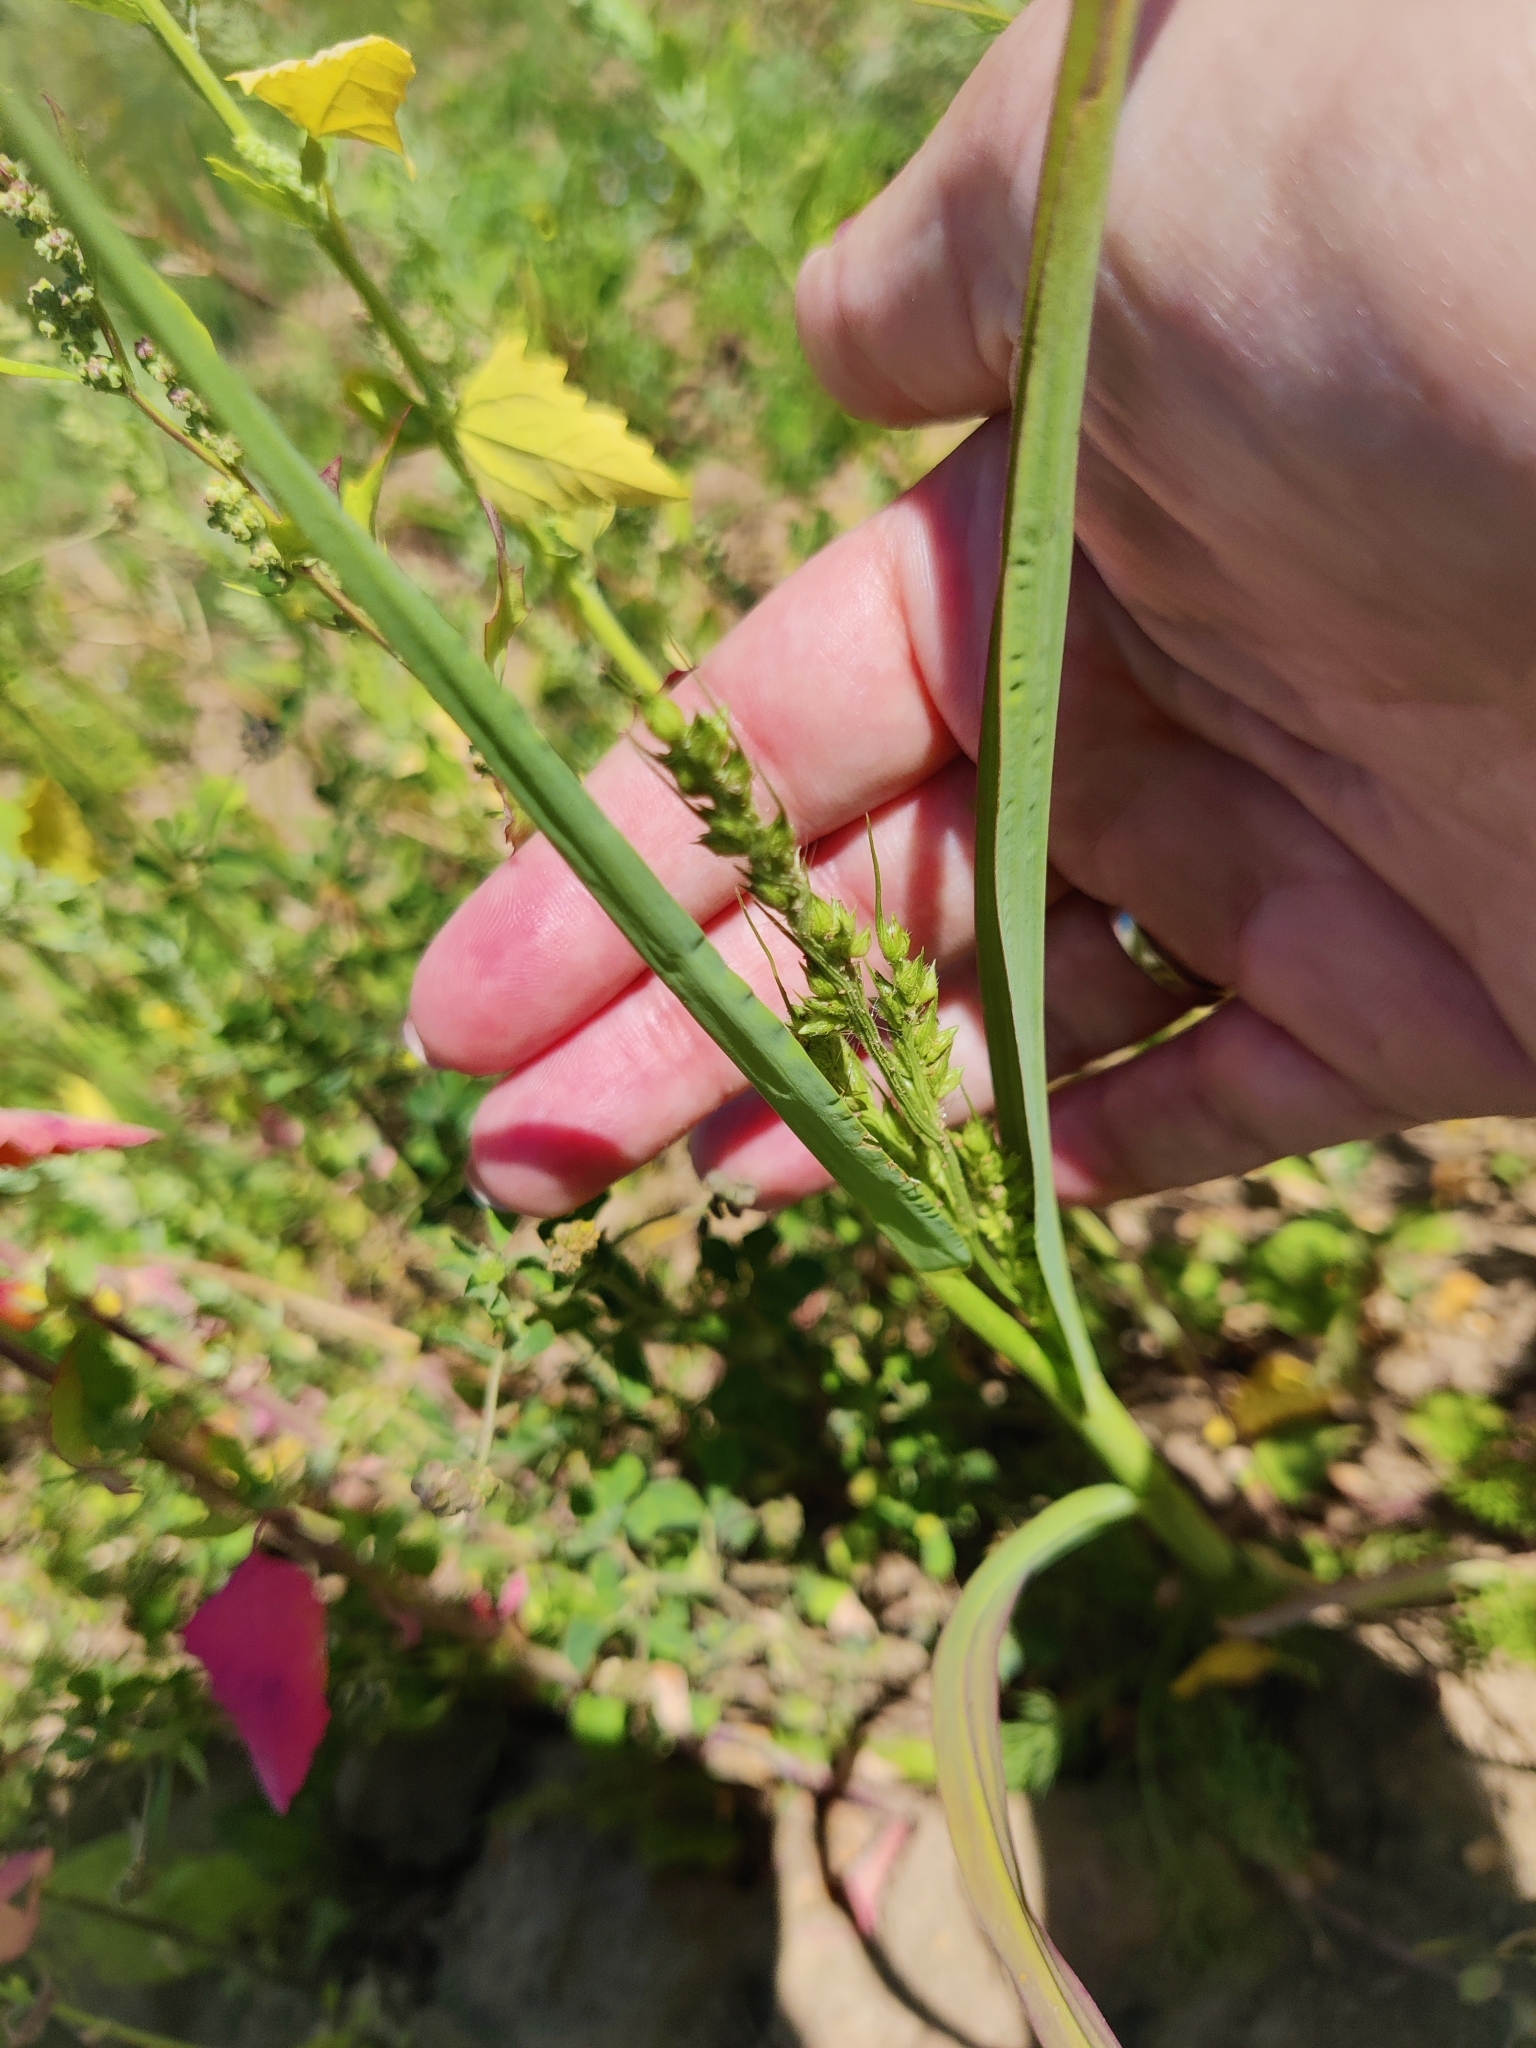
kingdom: Plantae
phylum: Tracheophyta
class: Liliopsida
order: Poales
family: Poaceae
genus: Echinochloa
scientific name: Echinochloa crus-galli
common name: Cockspur
